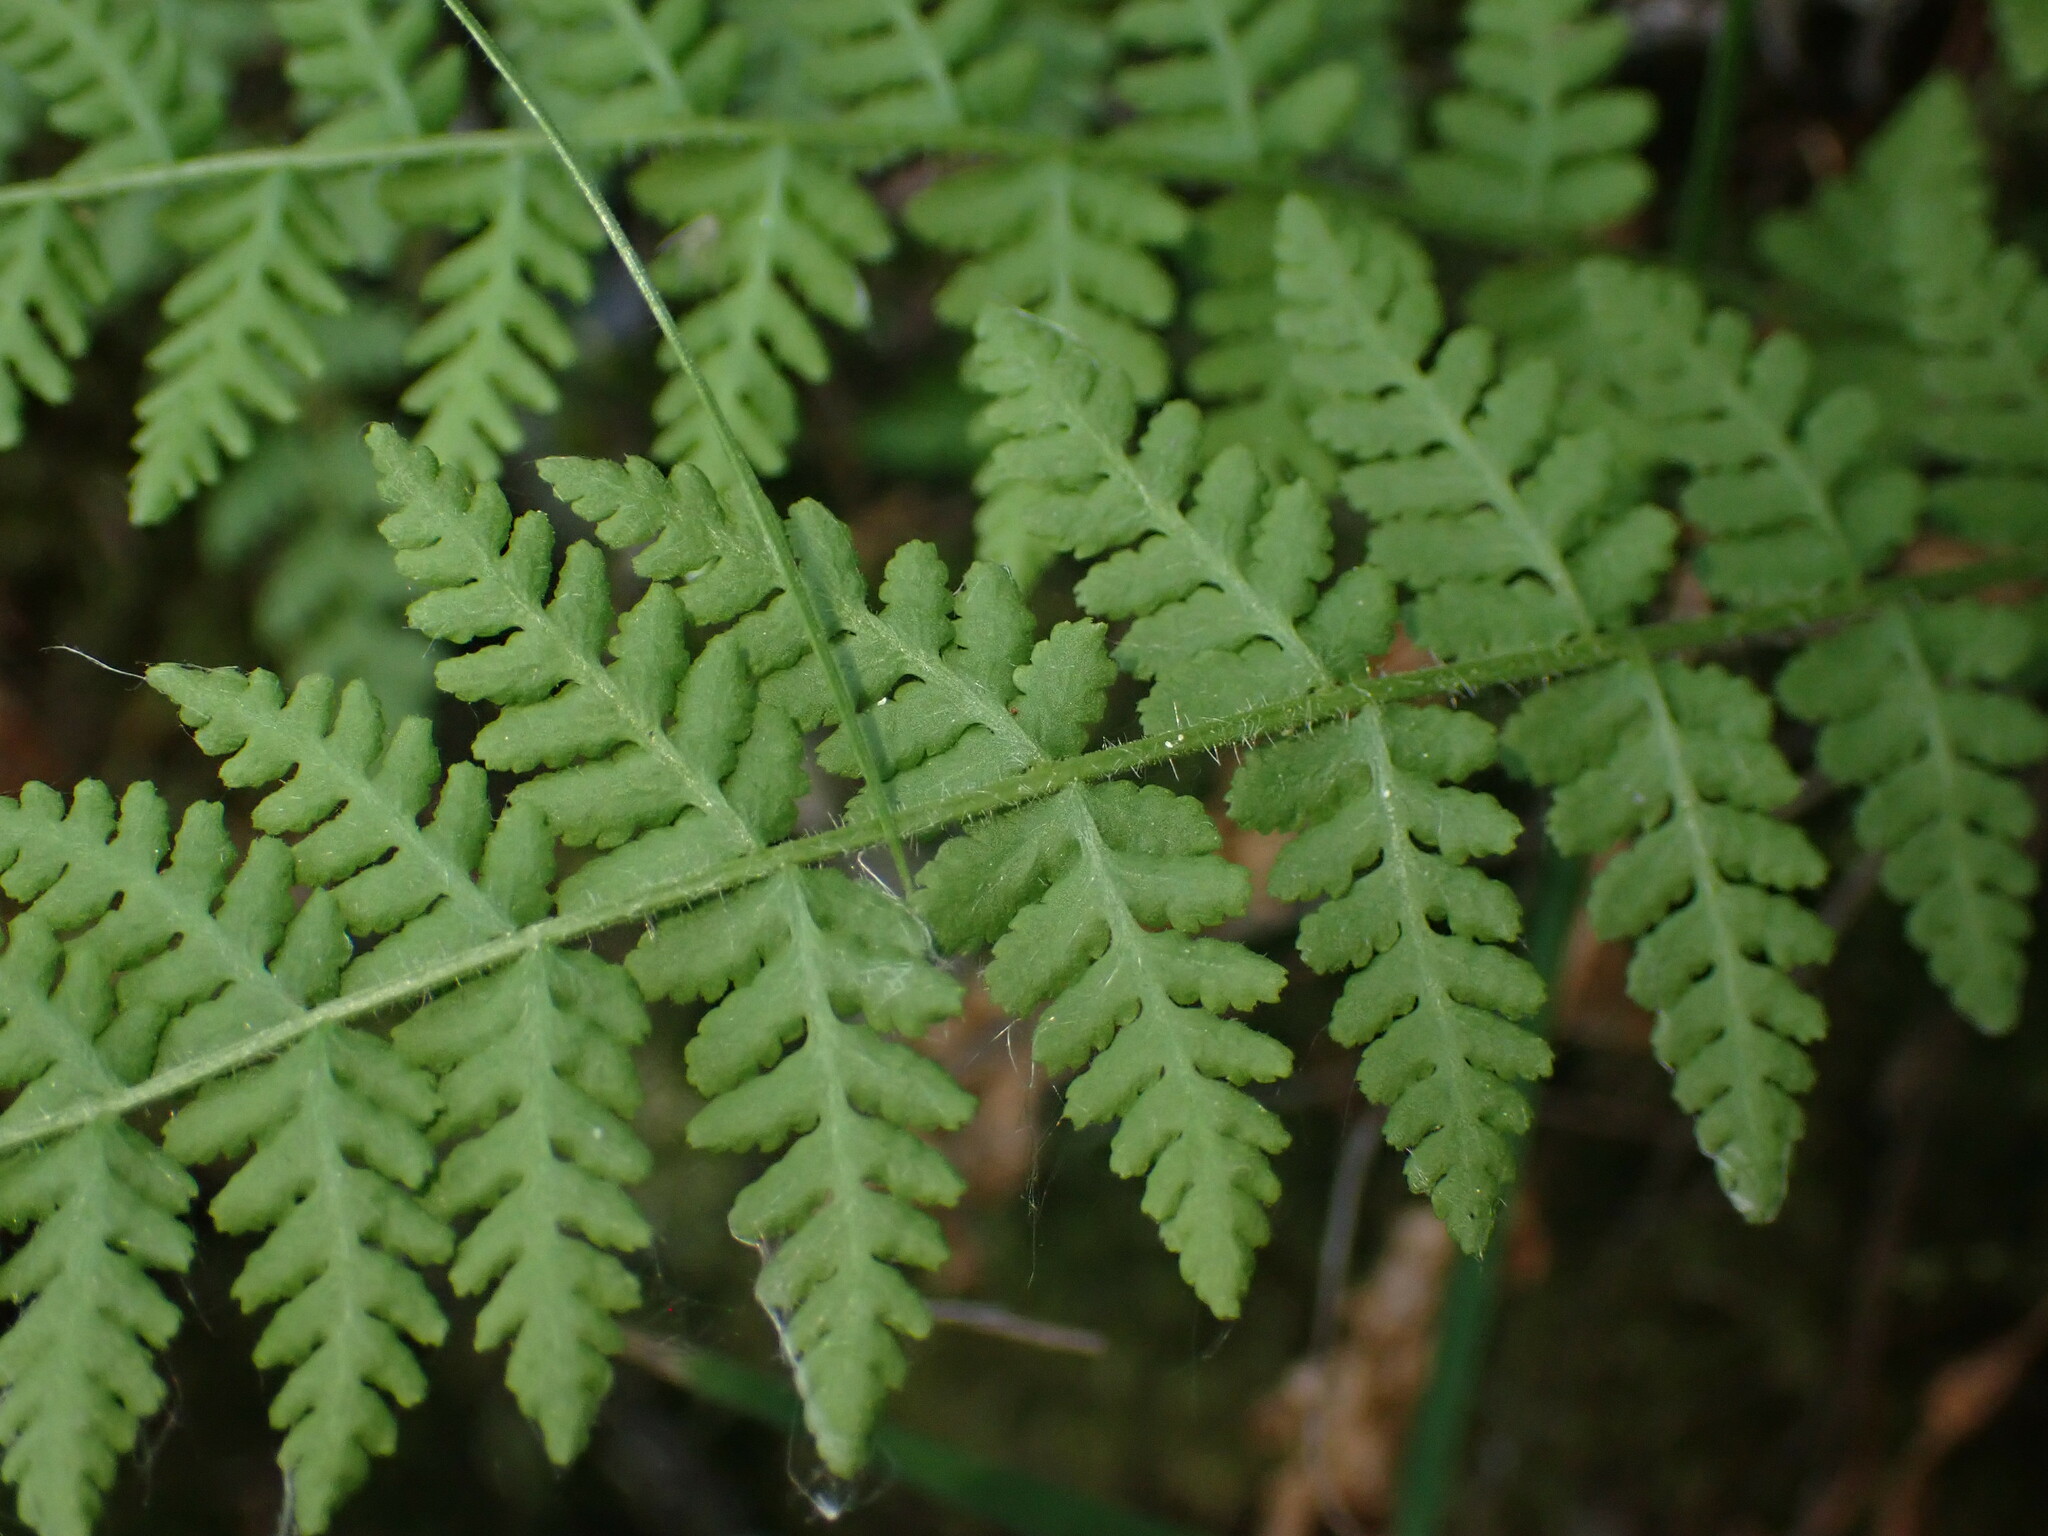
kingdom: Plantae
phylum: Tracheophyta
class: Polypodiopsida
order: Polypodiales
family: Woodsiaceae
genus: Physematium
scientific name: Physematium scopulinum
